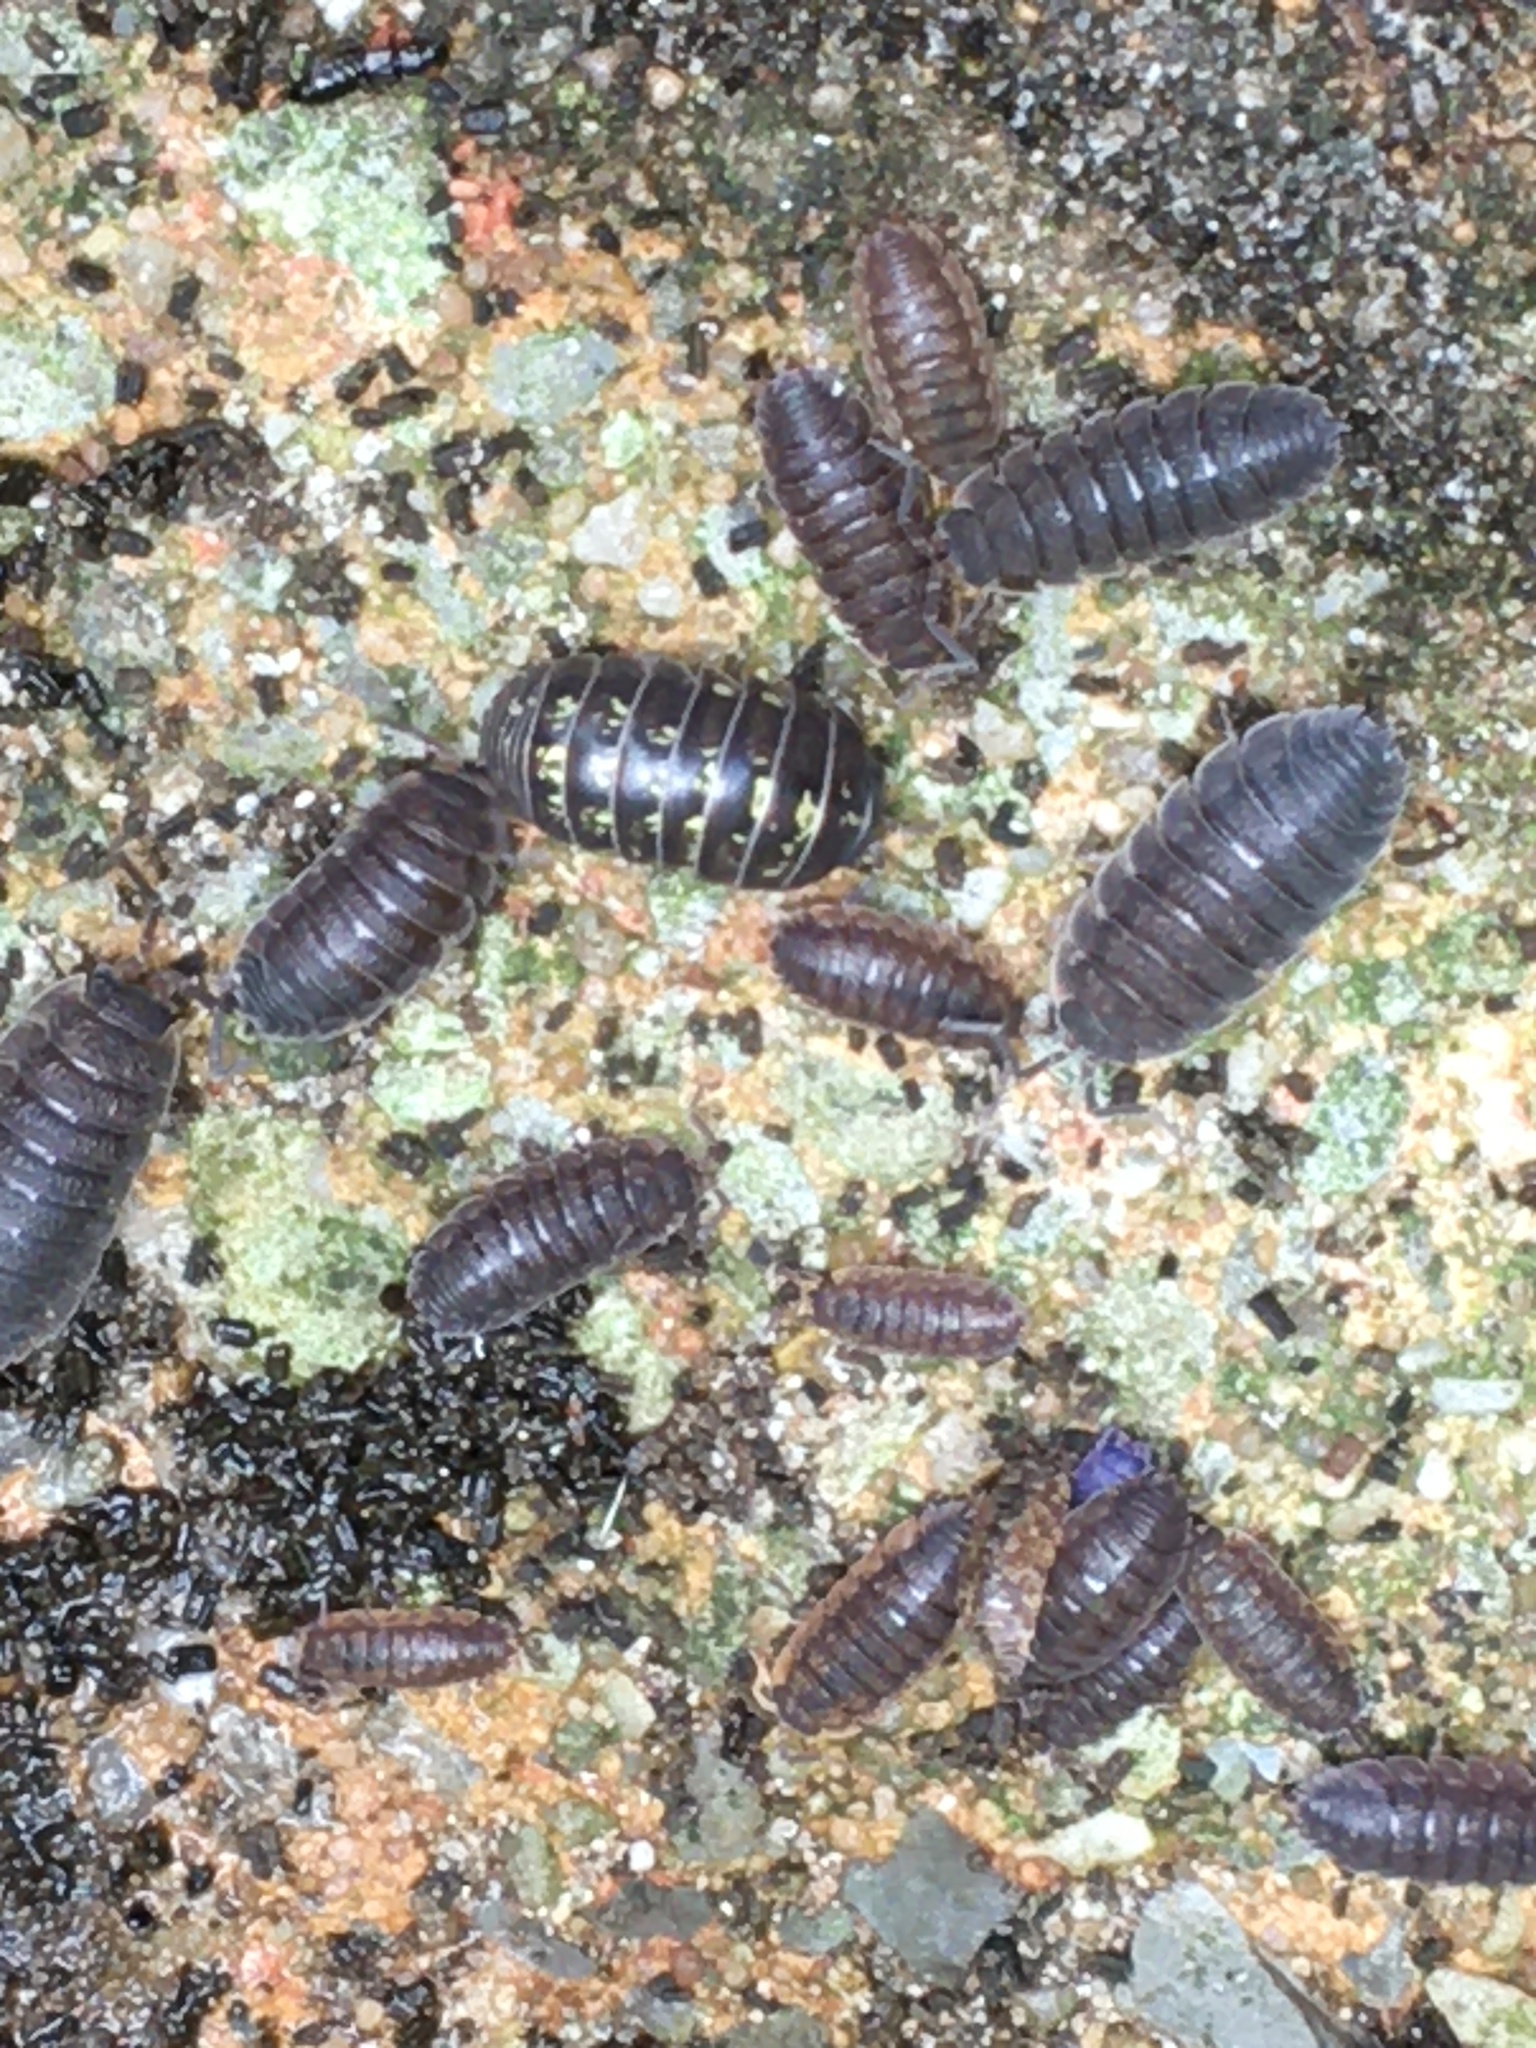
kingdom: Animalia
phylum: Arthropoda
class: Malacostraca
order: Isopoda
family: Porcellionidae
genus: Porcellio
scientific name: Porcellio scaber
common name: Common rough woodlouse
